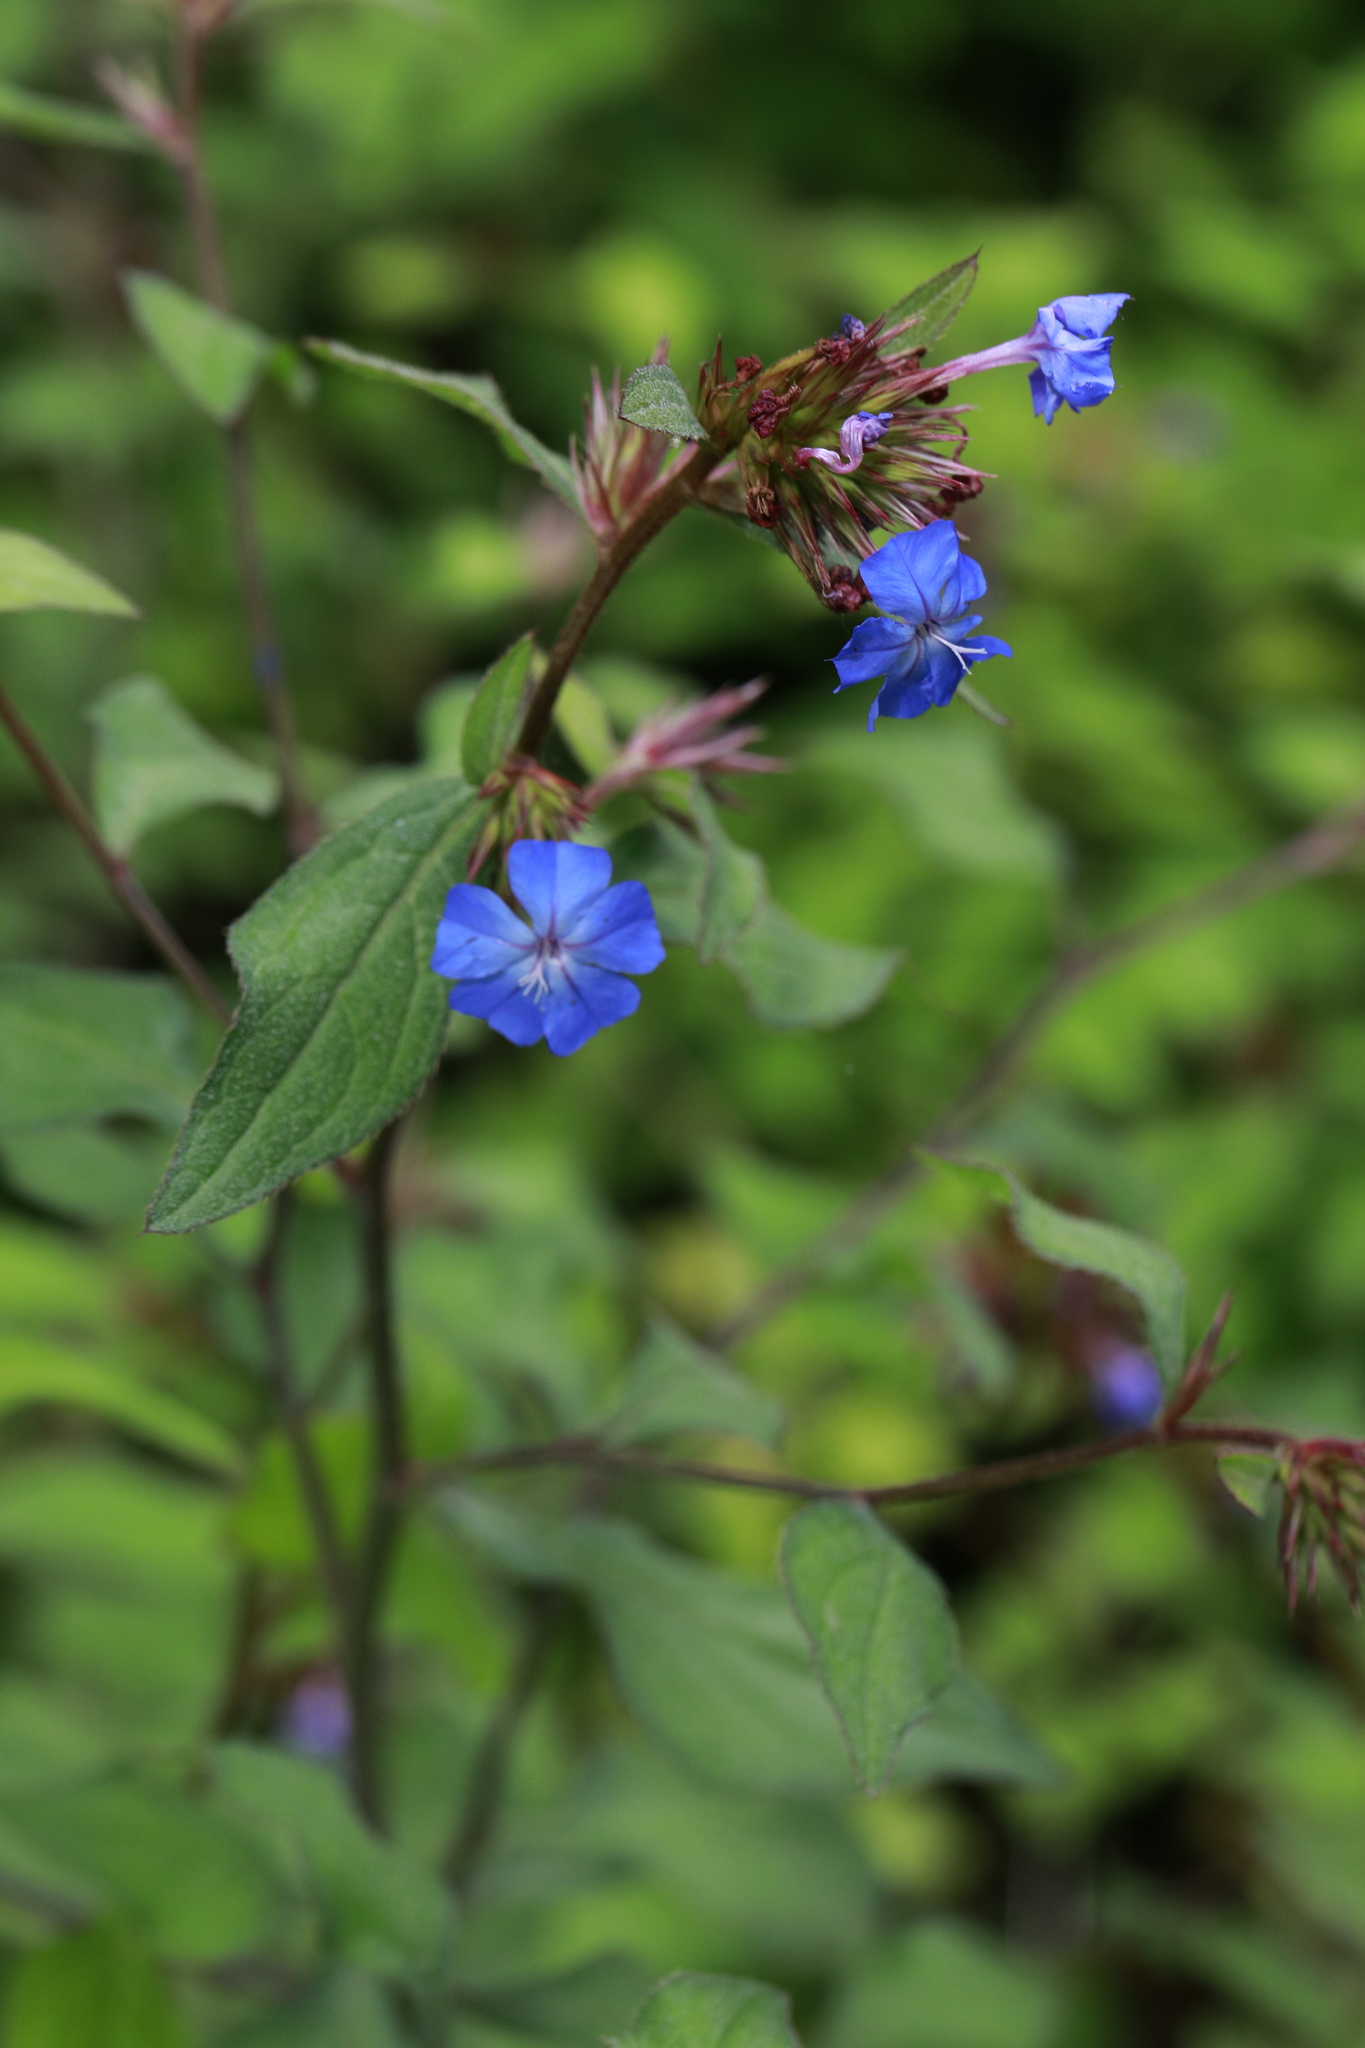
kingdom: Plantae
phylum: Tracheophyta
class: Magnoliopsida
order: Caryophyllales
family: Plumbaginaceae
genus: Ceratostigma
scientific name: Ceratostigma plumbaginoides
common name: Blue leadwood
